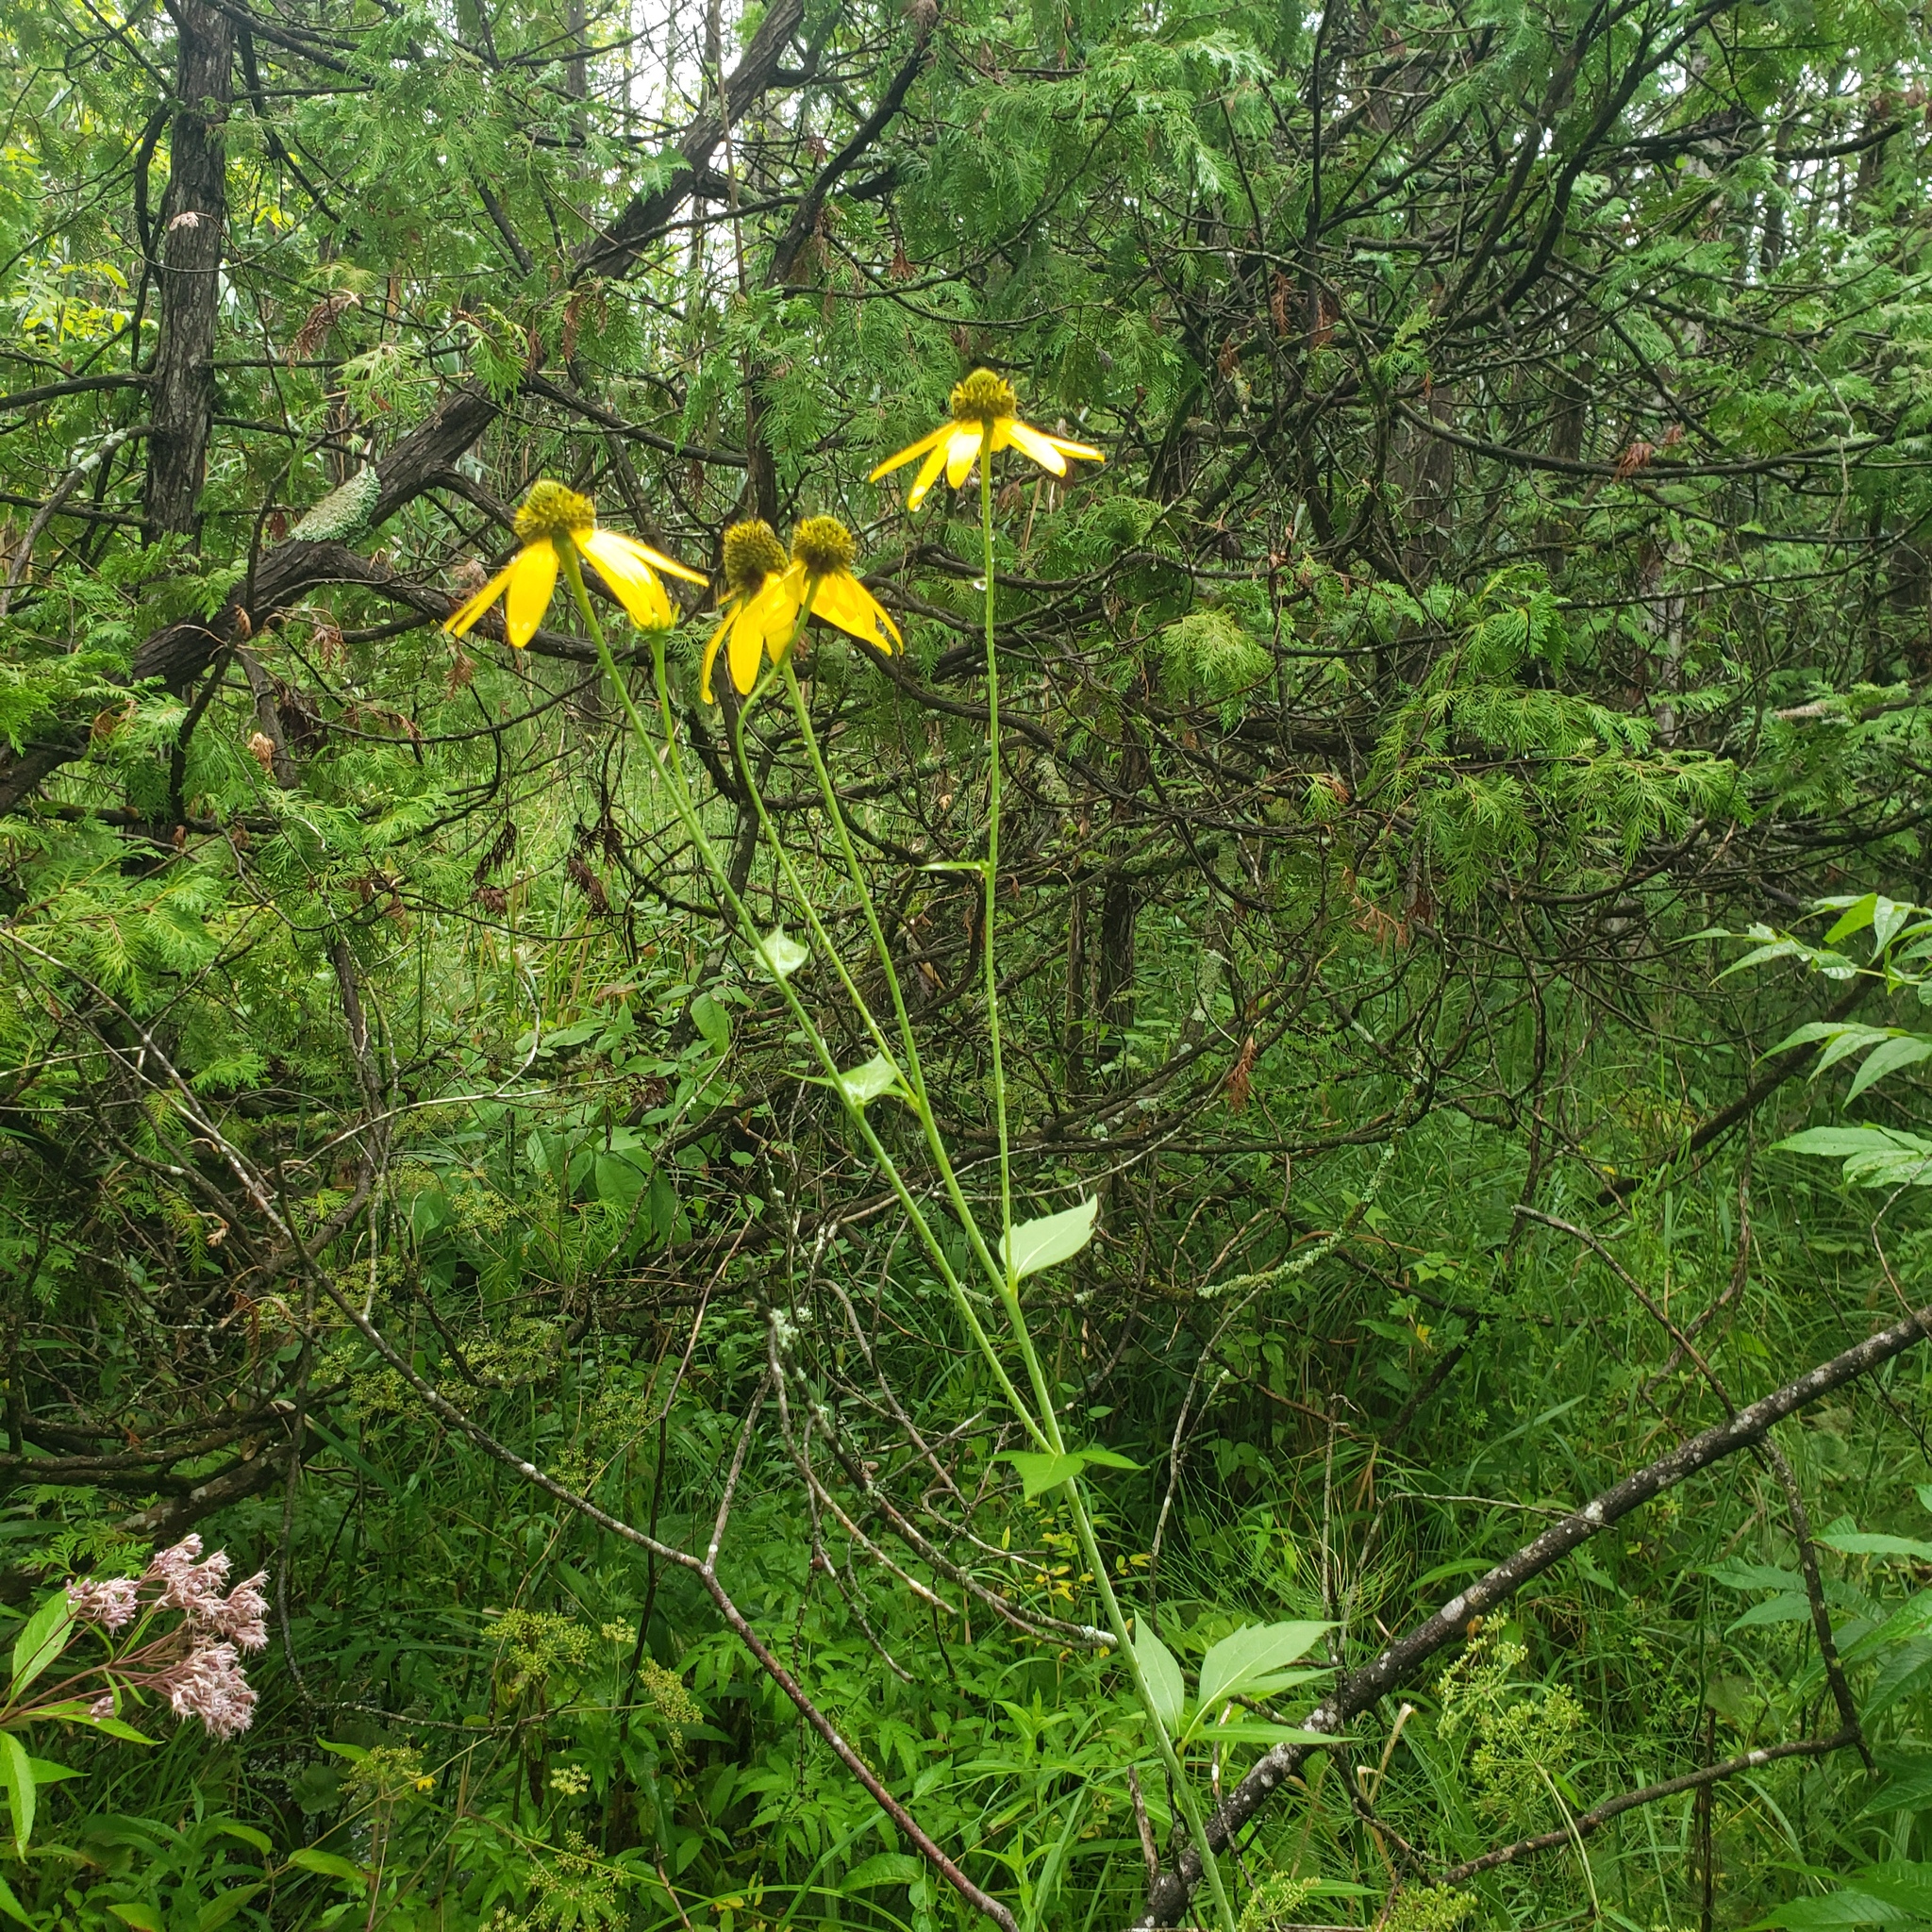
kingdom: Plantae
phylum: Tracheophyta
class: Magnoliopsida
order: Asterales
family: Asteraceae
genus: Rudbeckia
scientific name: Rudbeckia laciniata
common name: Coneflower
